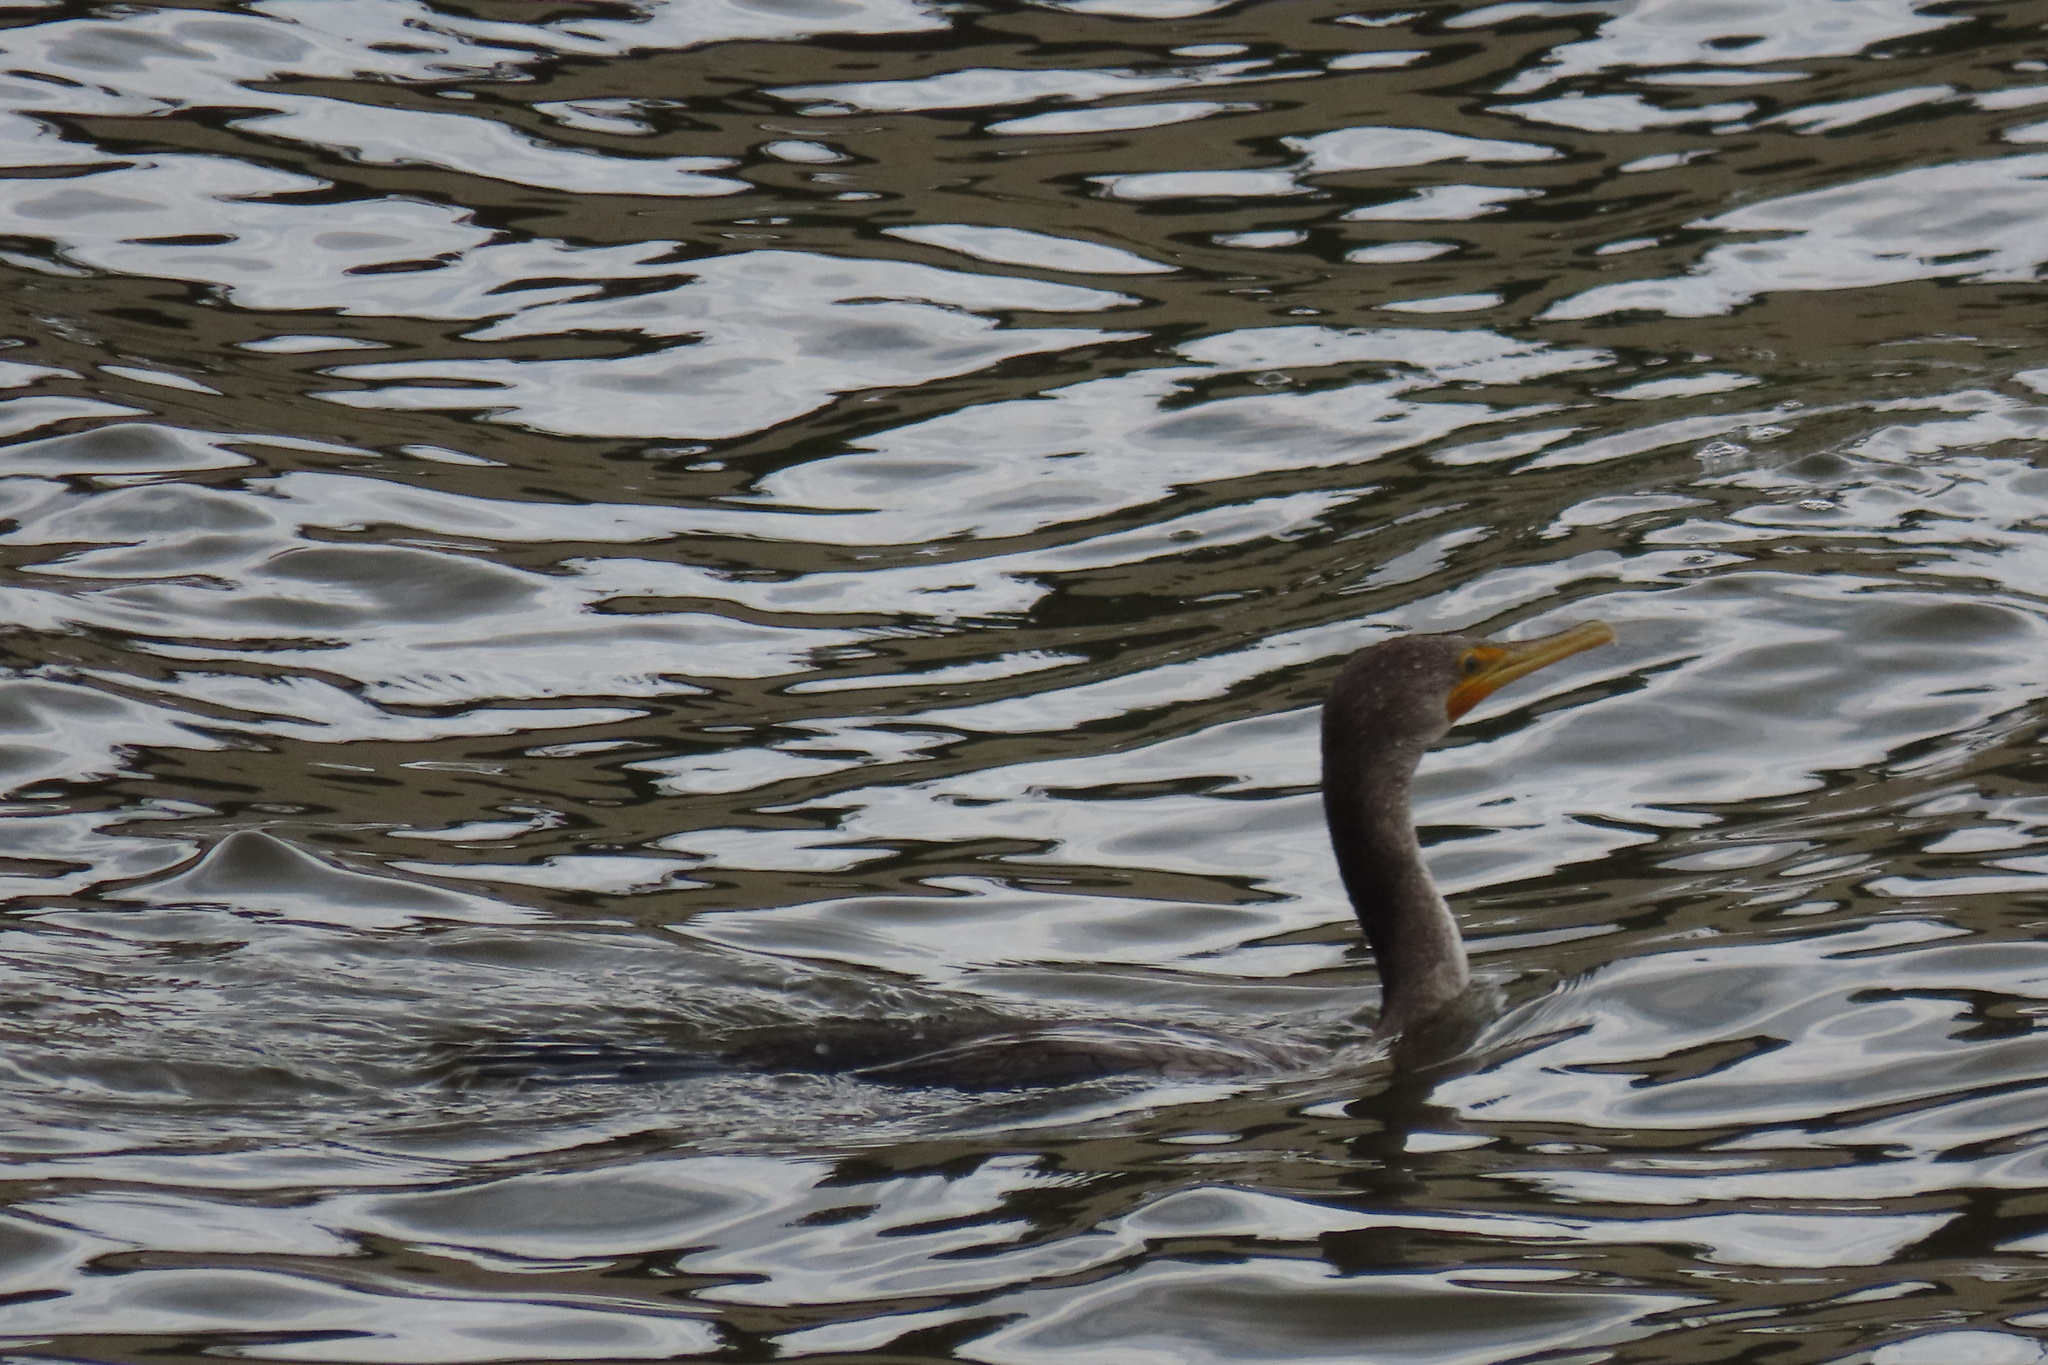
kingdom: Animalia
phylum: Chordata
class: Aves
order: Suliformes
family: Phalacrocoracidae
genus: Phalacrocorax
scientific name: Phalacrocorax auritus
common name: Double-crested cormorant
